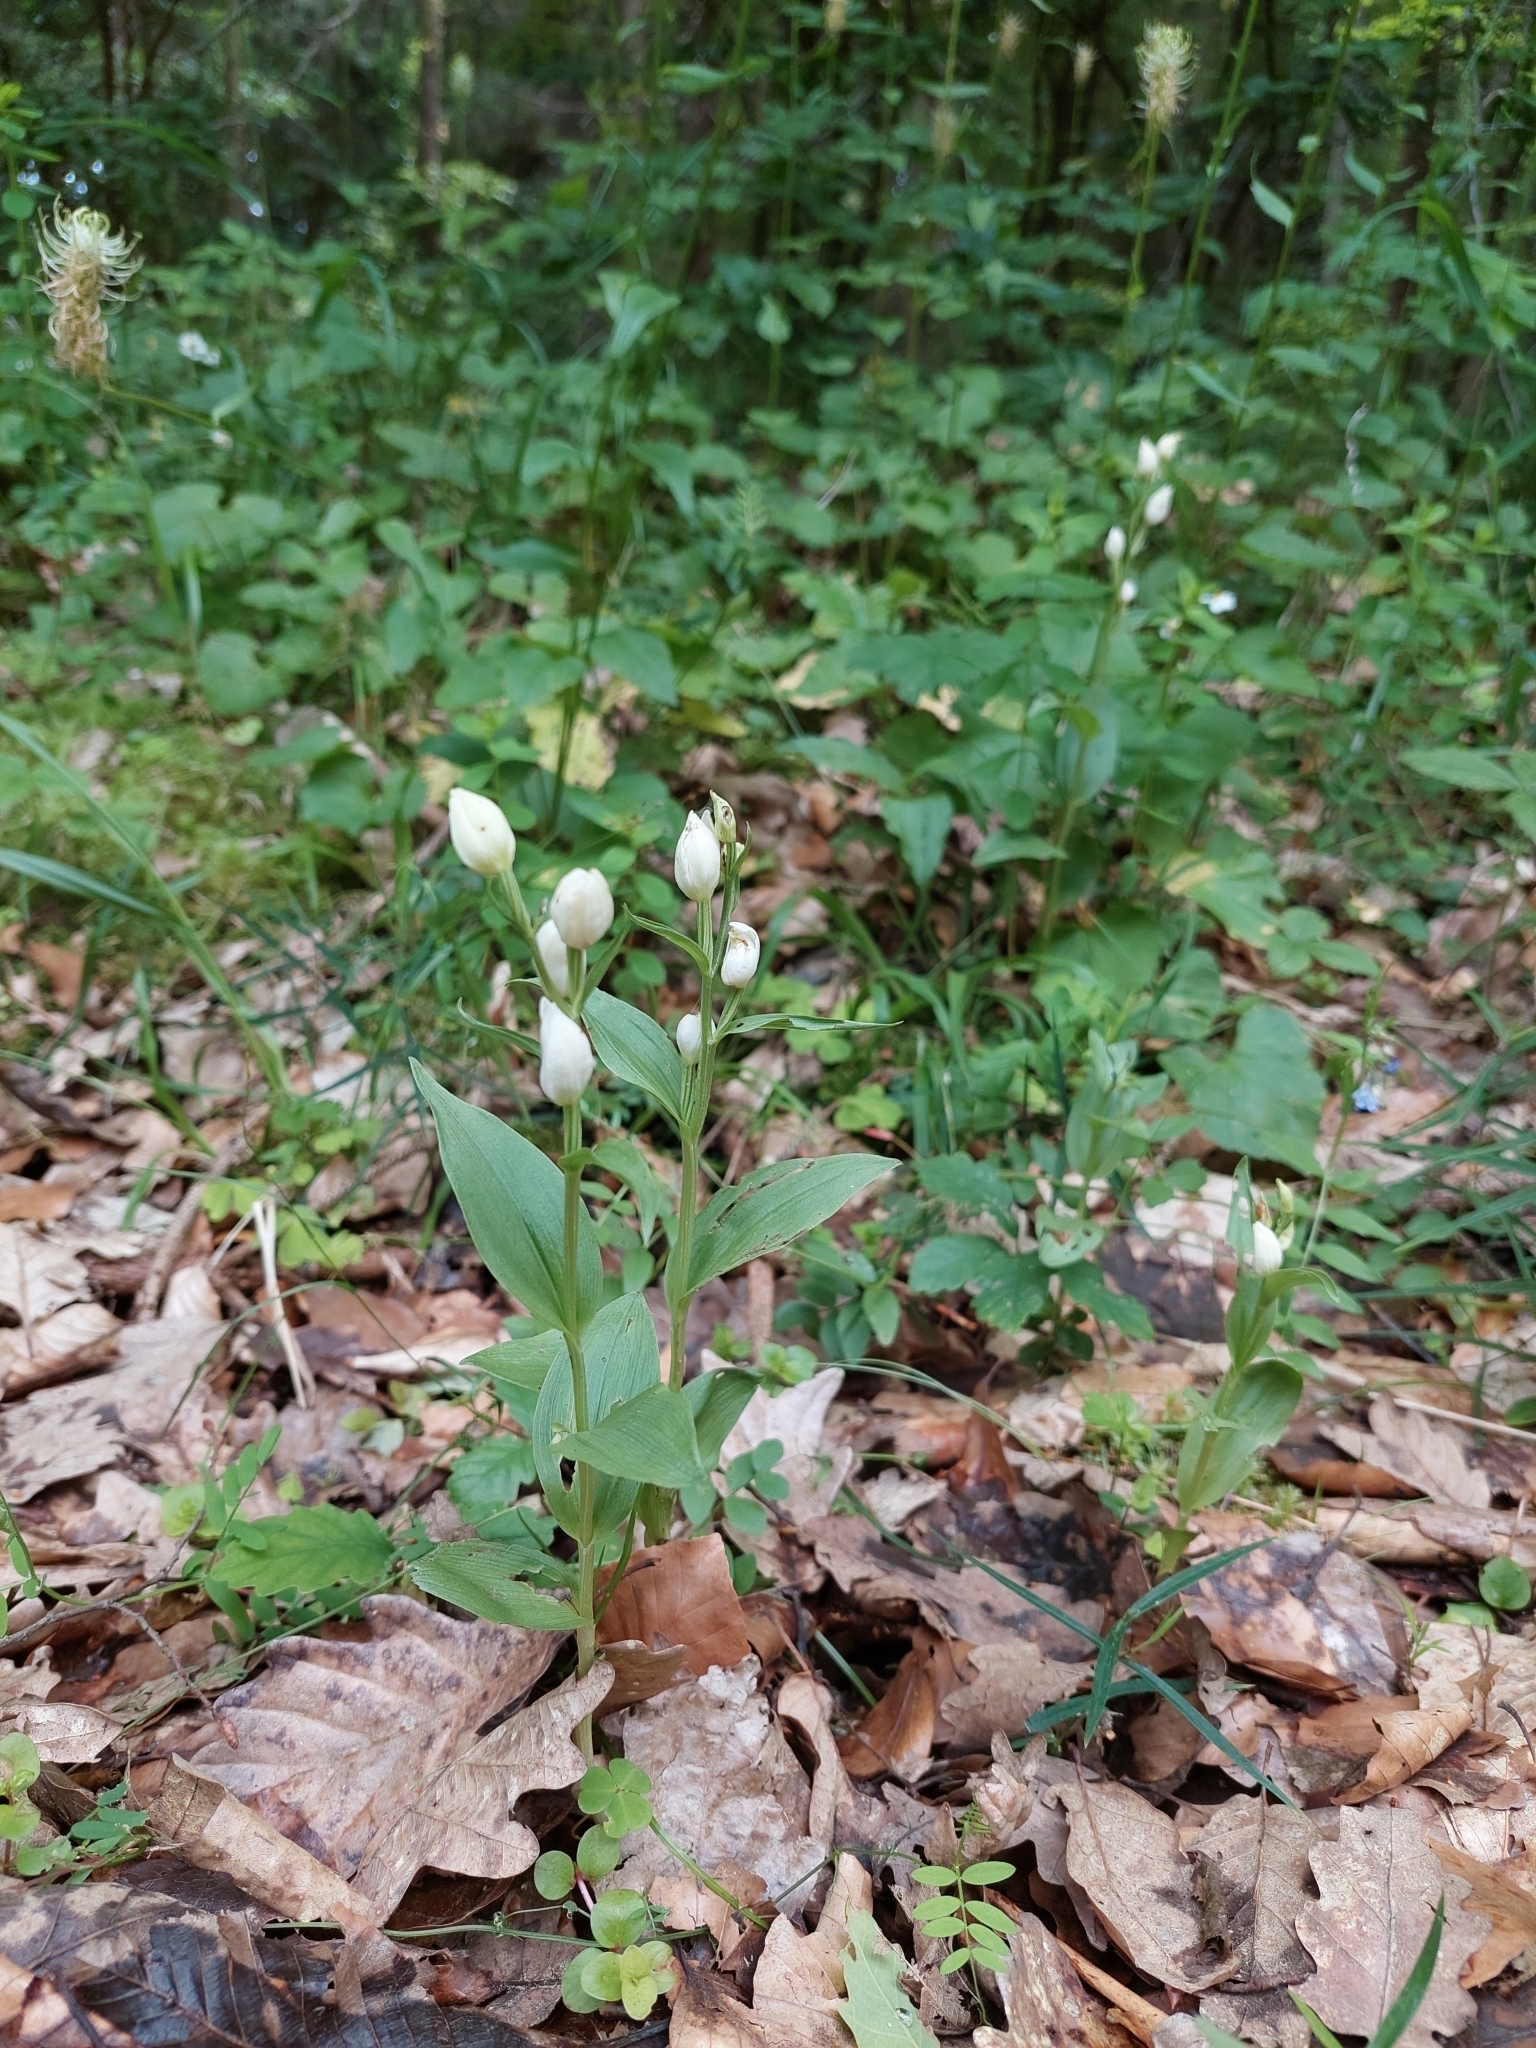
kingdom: Plantae
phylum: Tracheophyta
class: Liliopsida
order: Asparagales
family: Orchidaceae
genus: Cephalanthera
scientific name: Cephalanthera damasonium
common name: White helleborine
